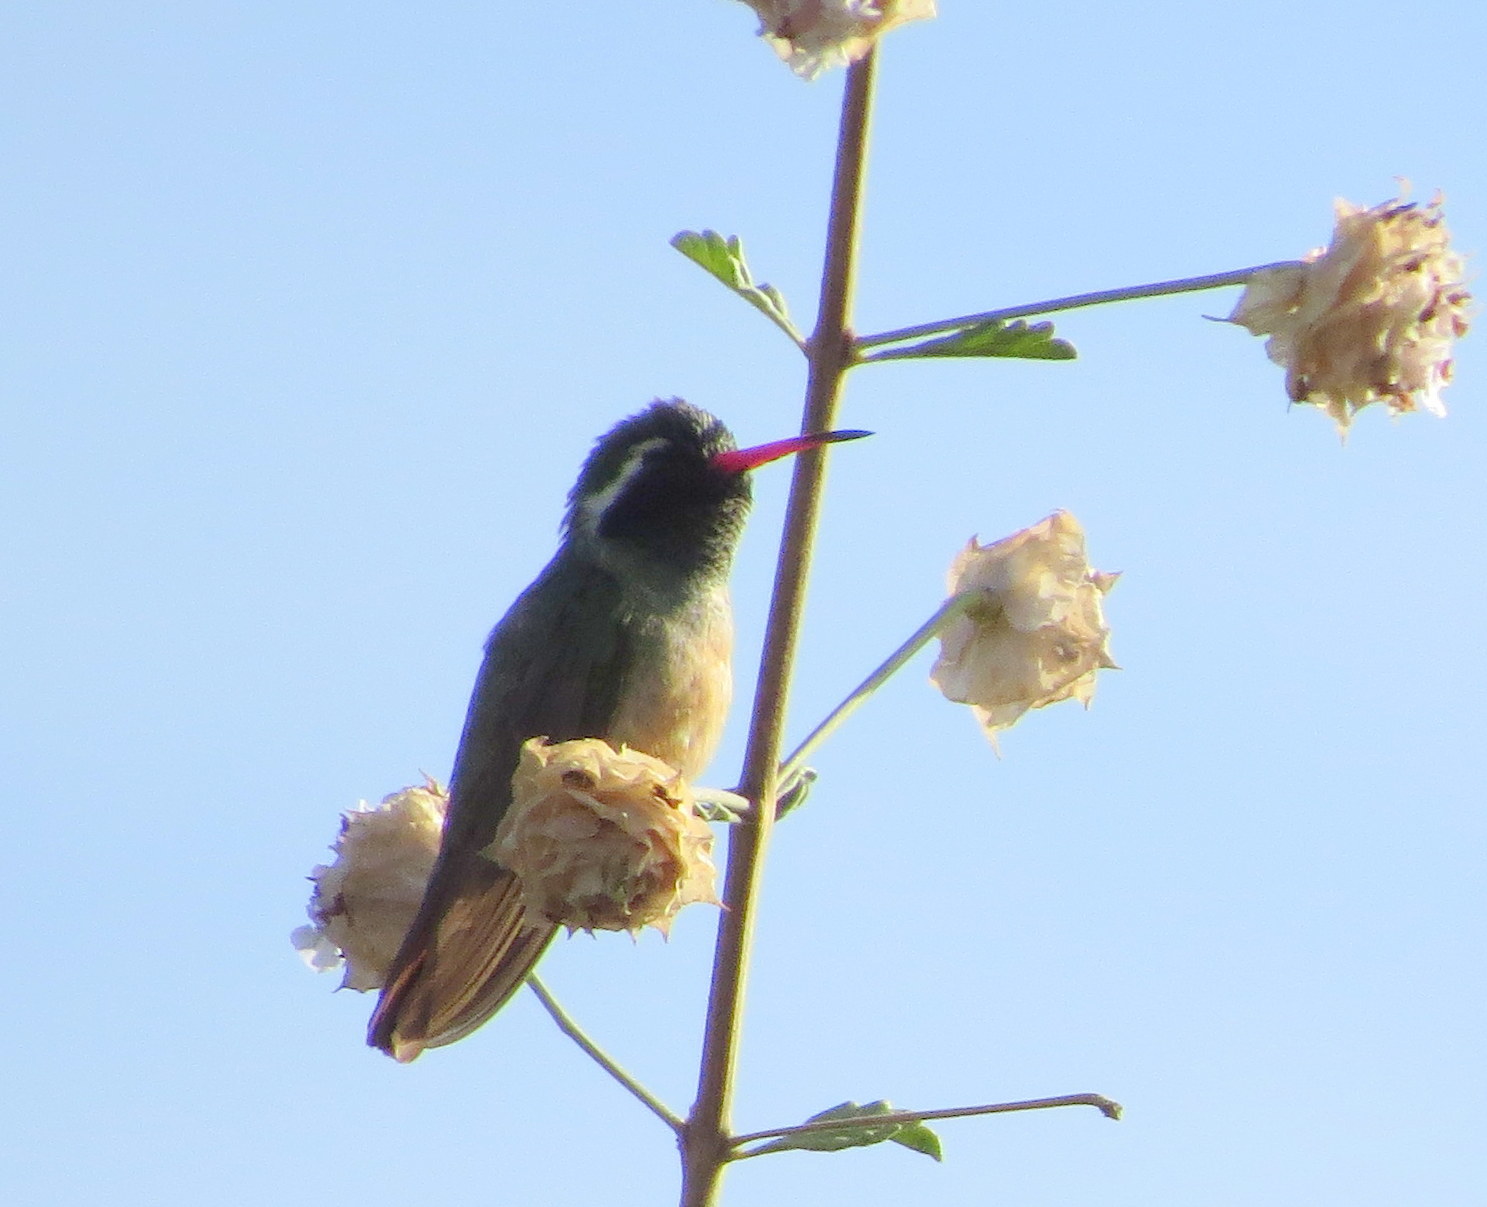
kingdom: Animalia
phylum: Chordata
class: Aves
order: Apodiformes
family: Trochilidae
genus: Basilinna
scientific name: Basilinna xantusii
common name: Xantus's hummingbird
